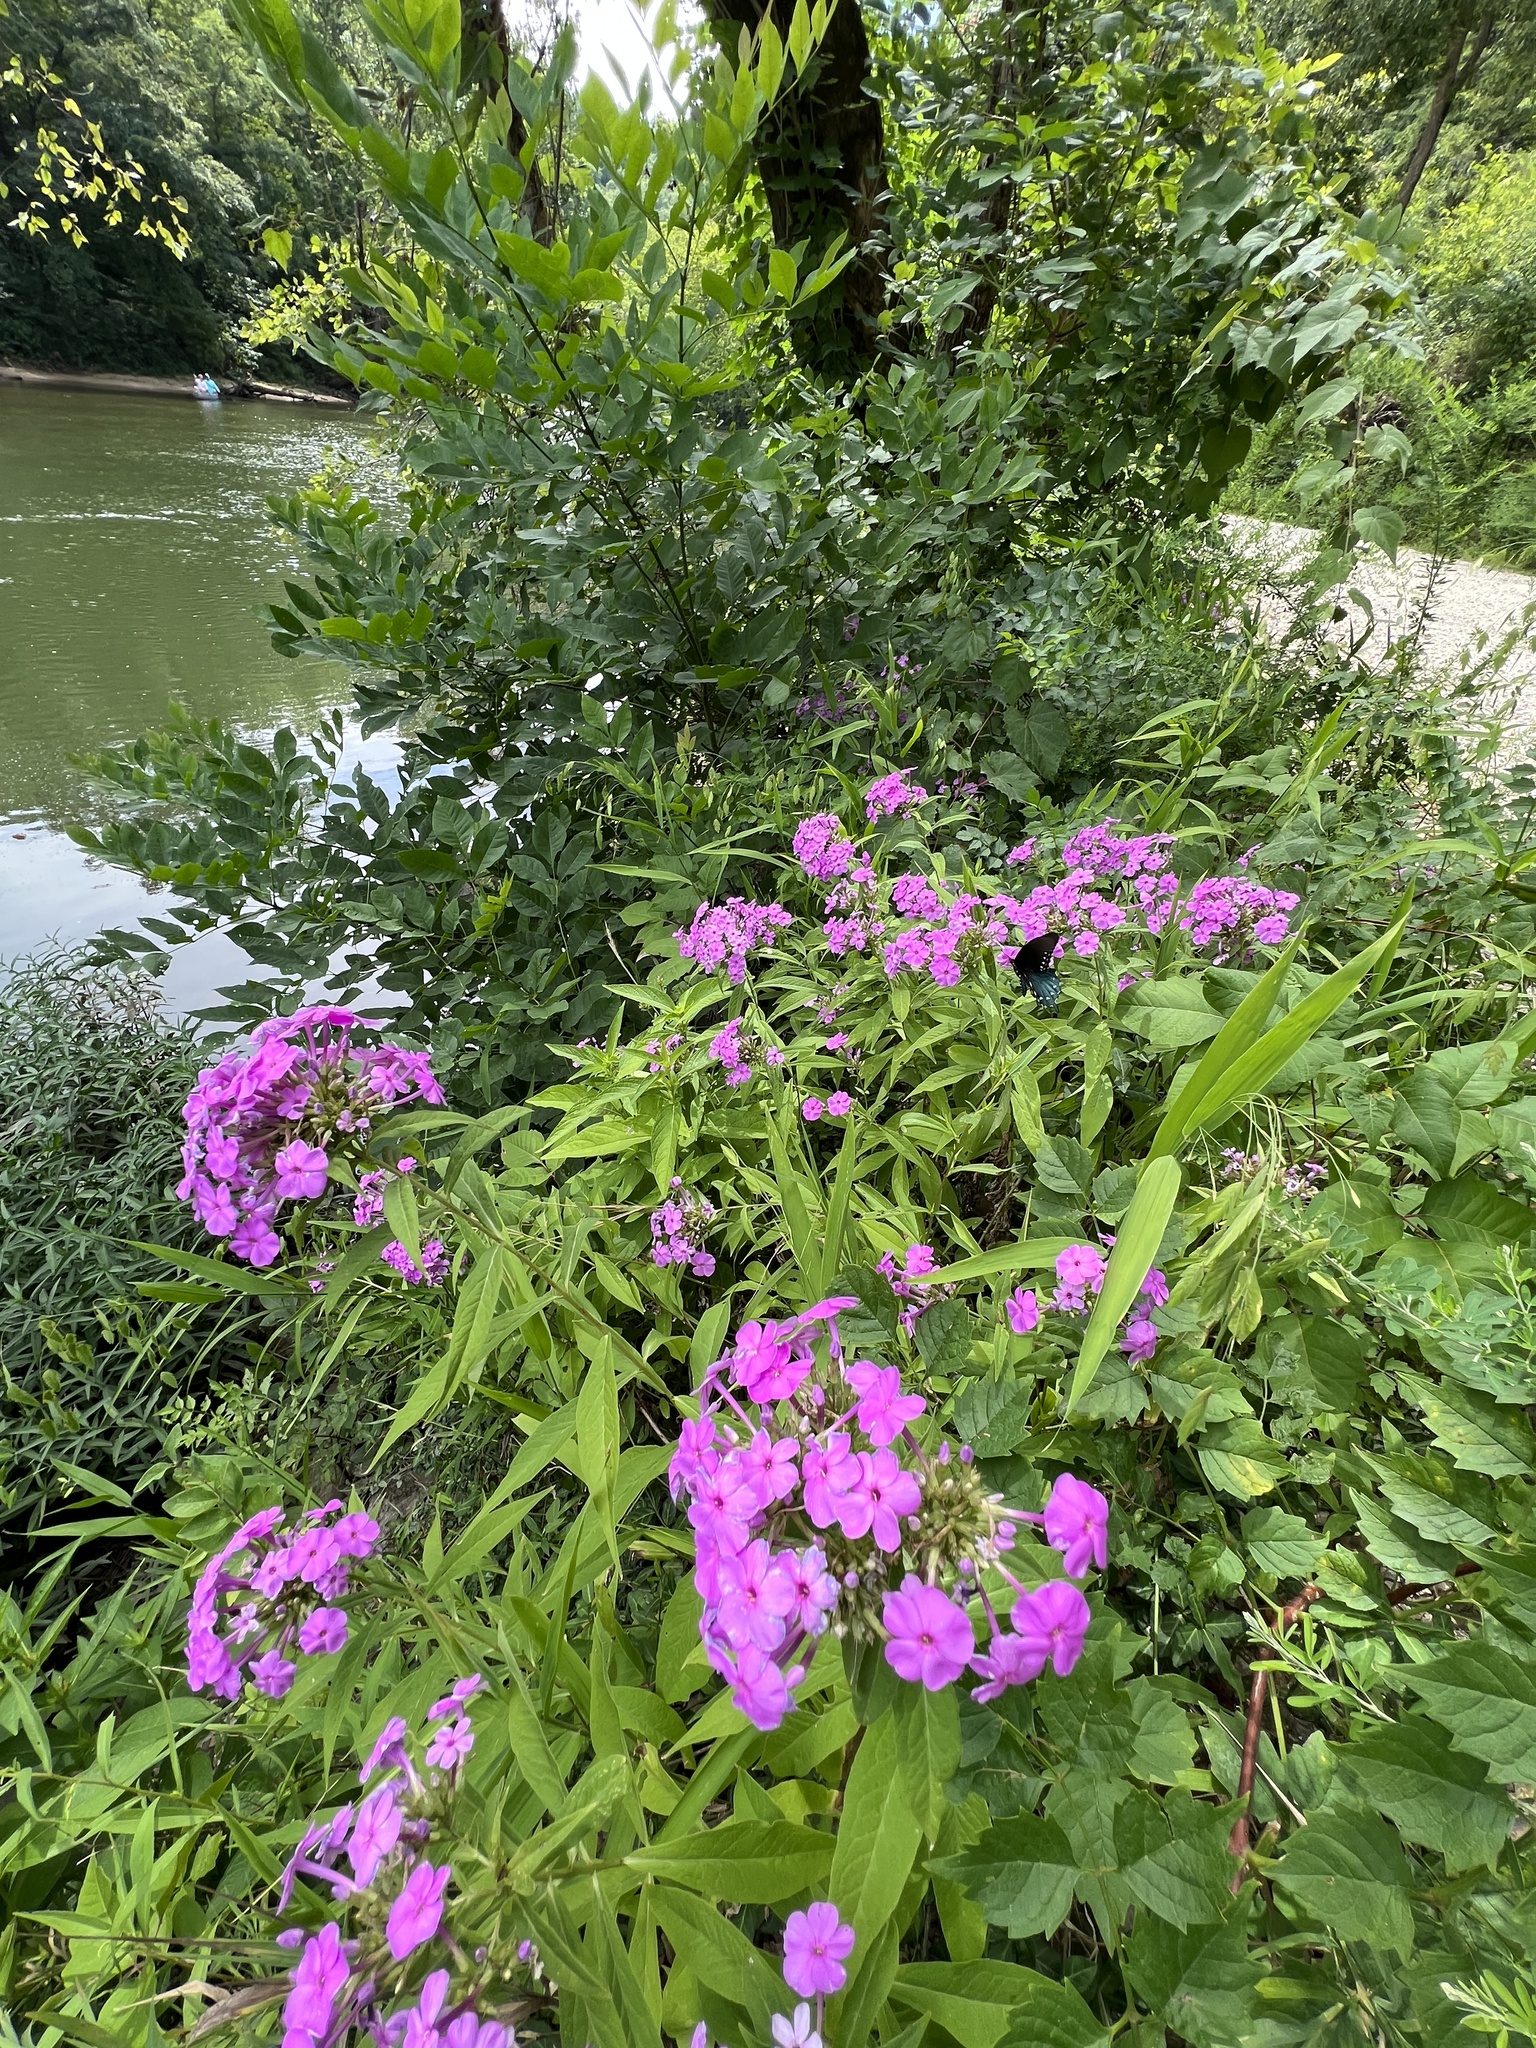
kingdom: Plantae
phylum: Tracheophyta
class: Magnoliopsida
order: Ericales
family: Polemoniaceae
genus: Phlox
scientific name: Phlox paniculata
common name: Fall phlox
